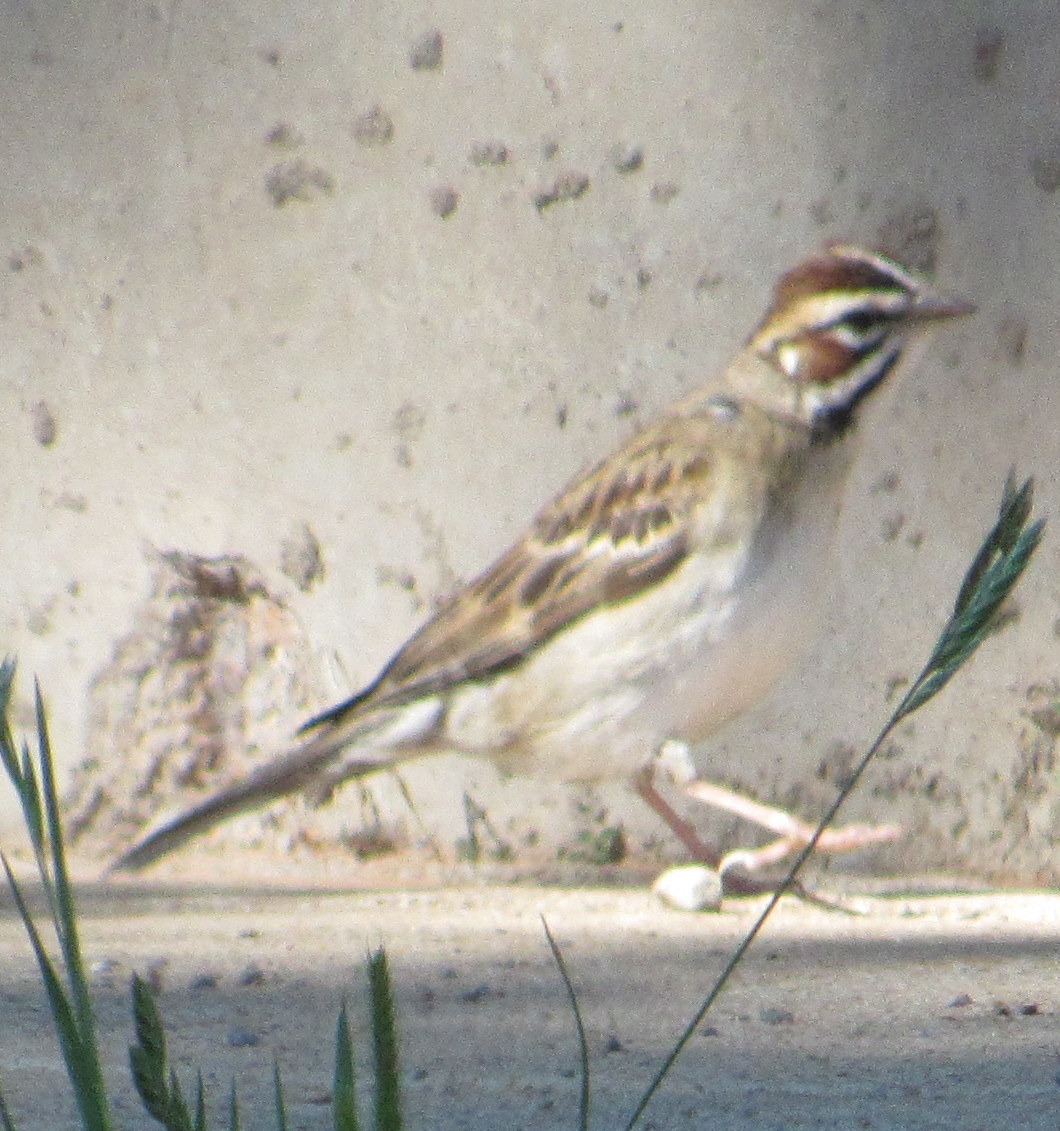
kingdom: Animalia
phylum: Chordata
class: Aves
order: Passeriformes
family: Passerellidae
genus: Chondestes
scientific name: Chondestes grammacus
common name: Lark sparrow
